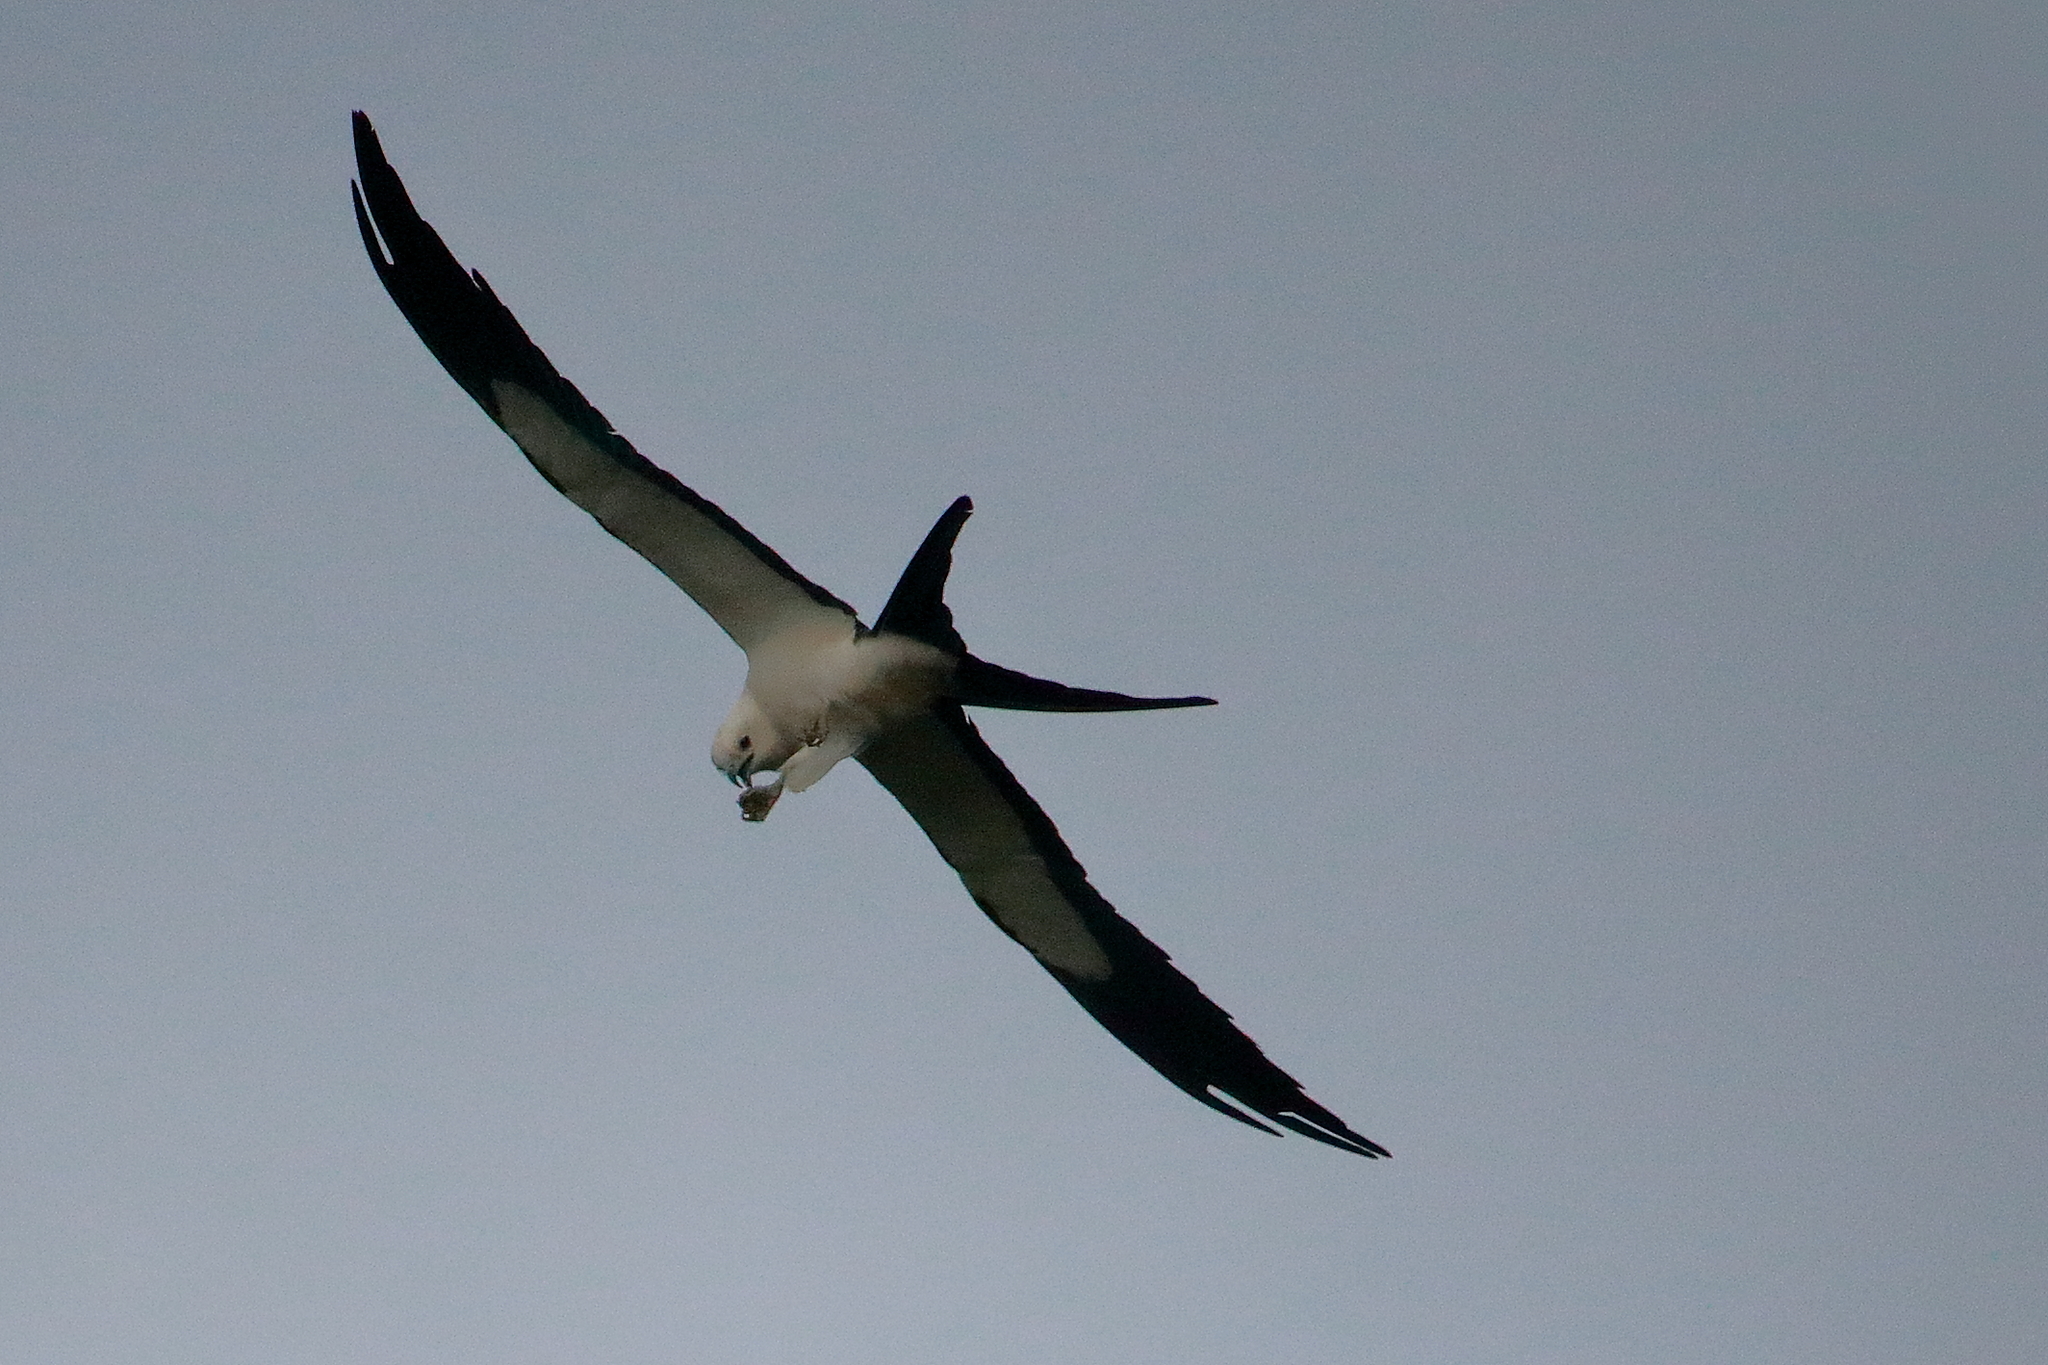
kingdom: Animalia
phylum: Chordata
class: Aves
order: Accipitriformes
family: Accipitridae
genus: Elanoides
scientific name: Elanoides forficatus
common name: Swallow-tailed kite
